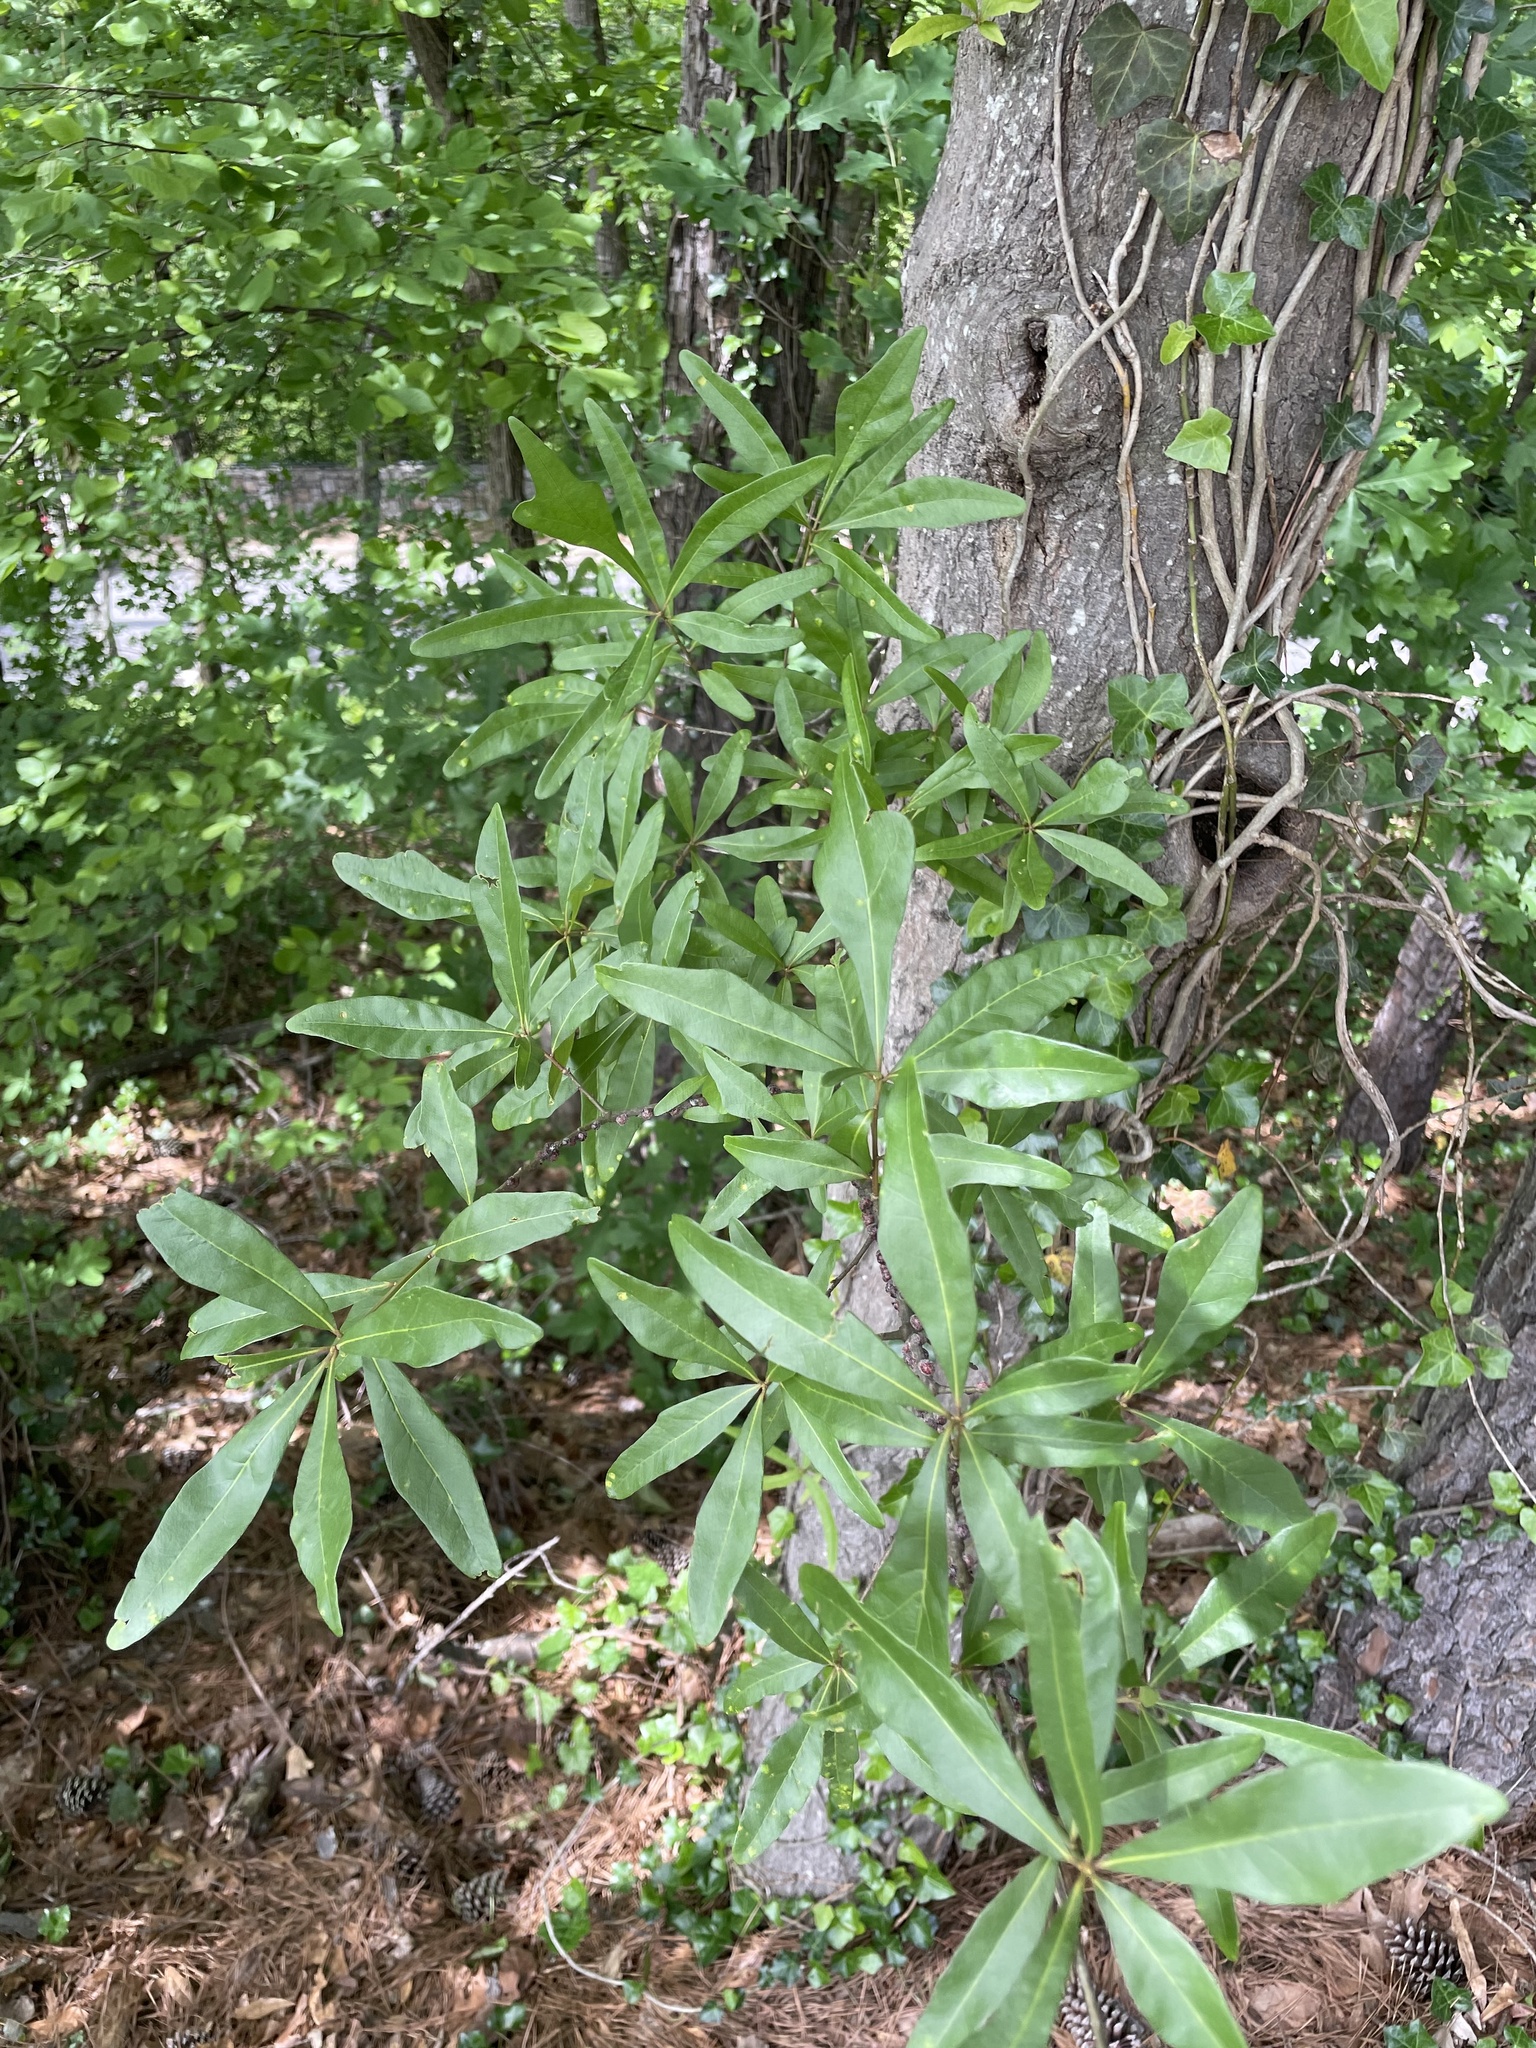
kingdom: Plantae
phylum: Tracheophyta
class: Magnoliopsida
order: Fagales
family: Fagaceae
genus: Quercus
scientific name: Quercus nigra
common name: Water oak
